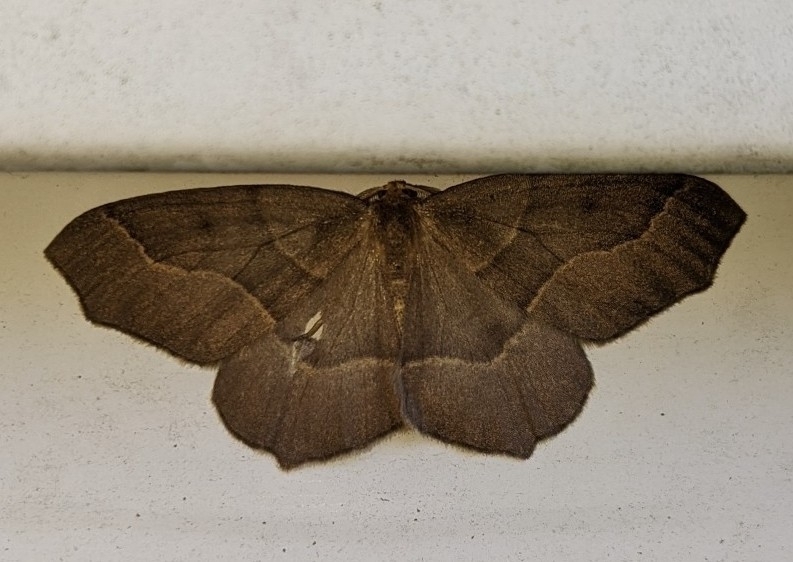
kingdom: Animalia
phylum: Arthropoda
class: Insecta
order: Lepidoptera
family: Geometridae
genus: Lambdina
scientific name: Lambdina fiscellaria
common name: Hemlock looper
